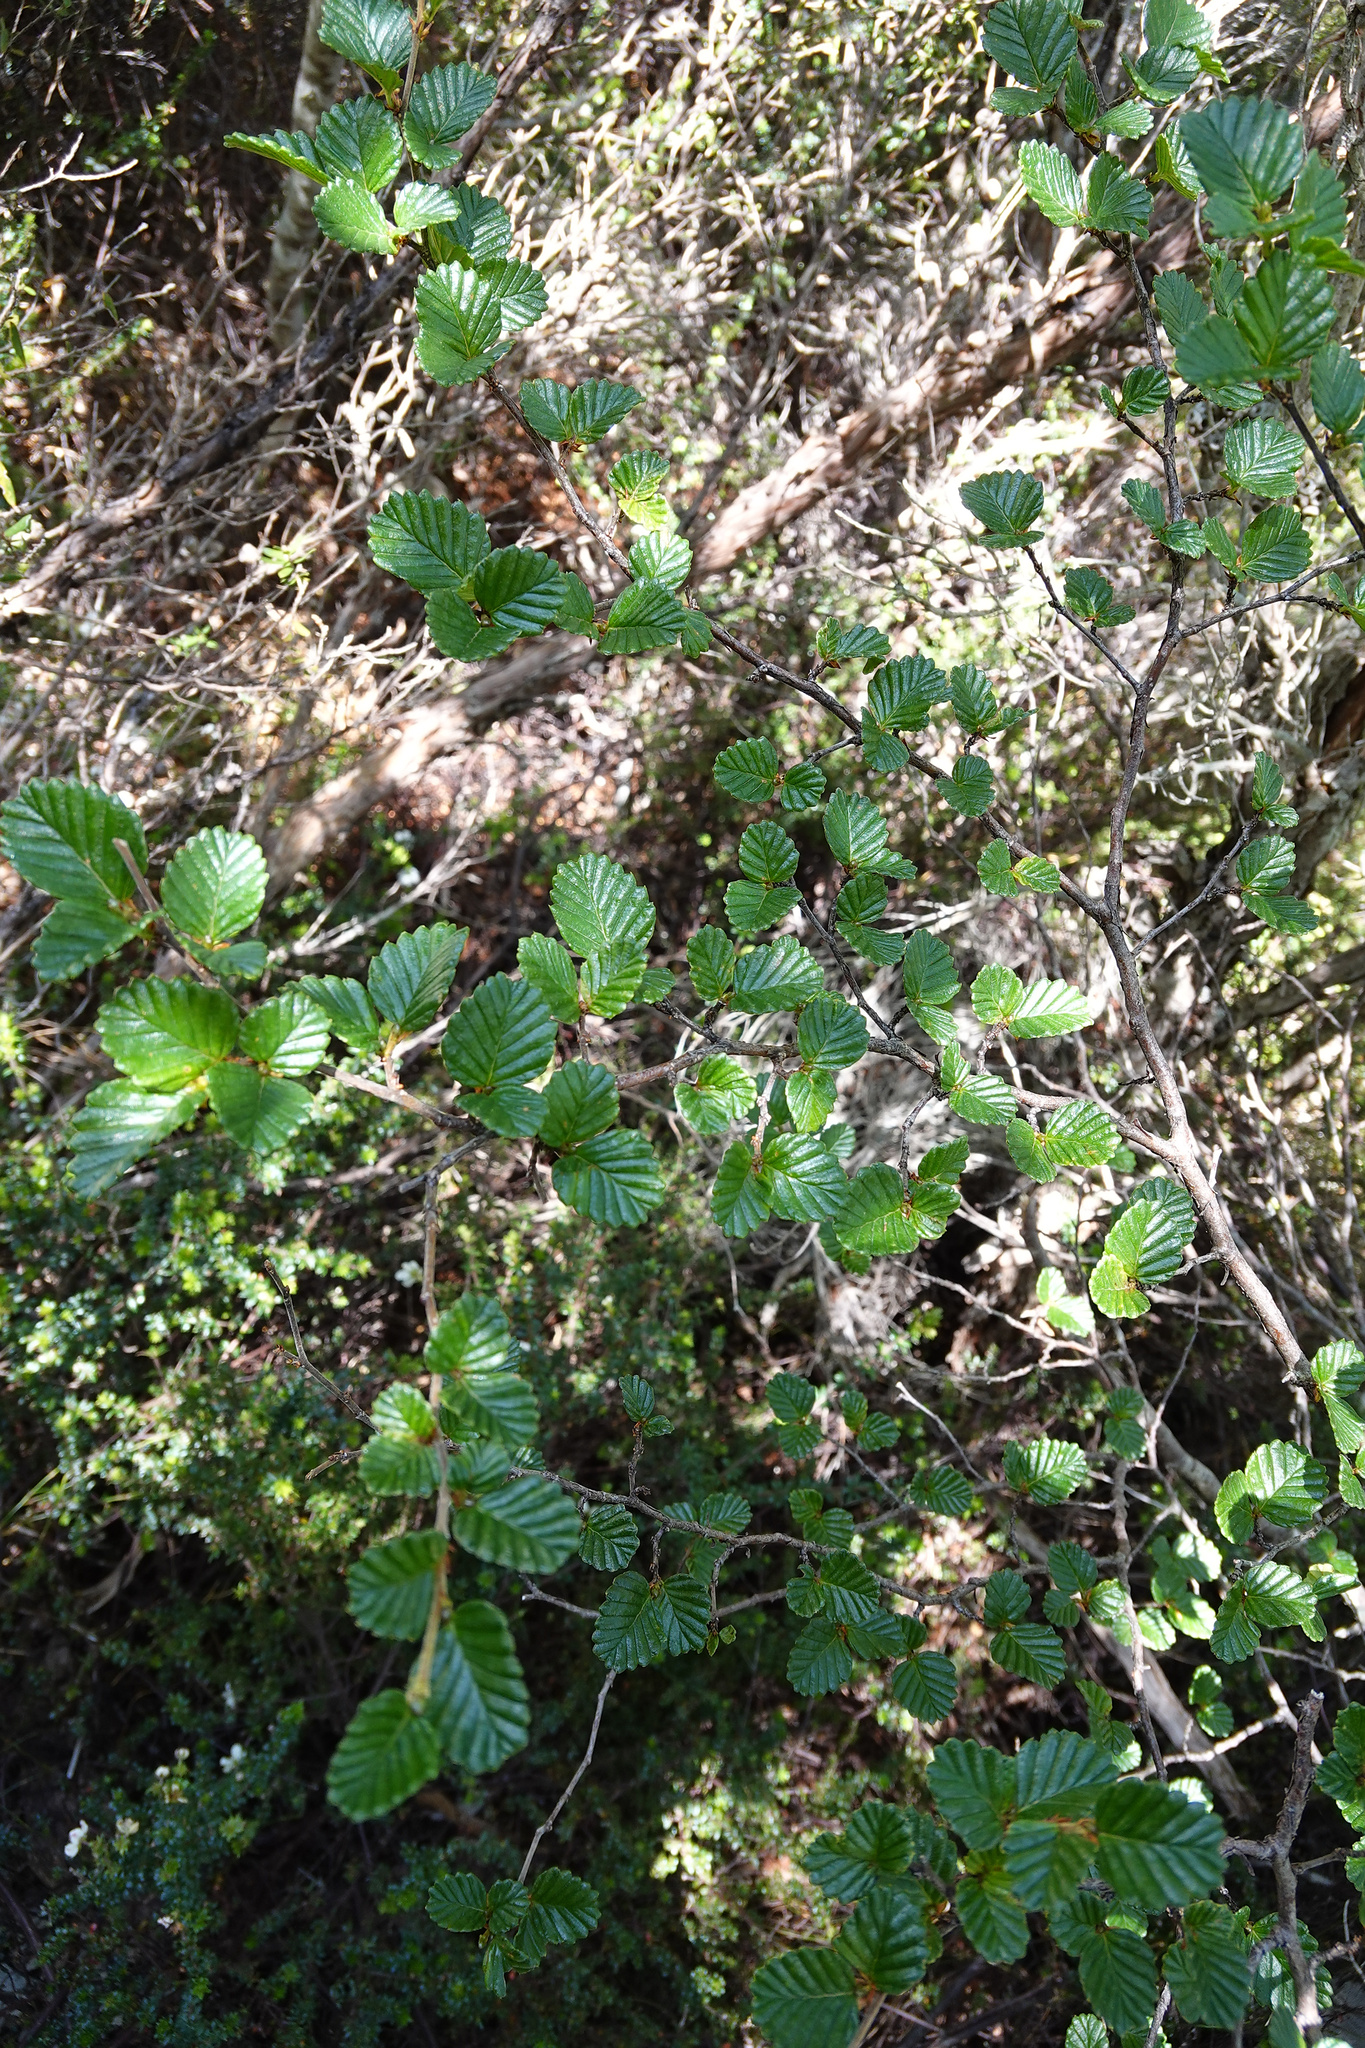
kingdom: Plantae
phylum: Tracheophyta
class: Magnoliopsida
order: Fagales
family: Nothofagaceae
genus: Nothofagus
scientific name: Nothofagus gunnii
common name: Tanglefoot
